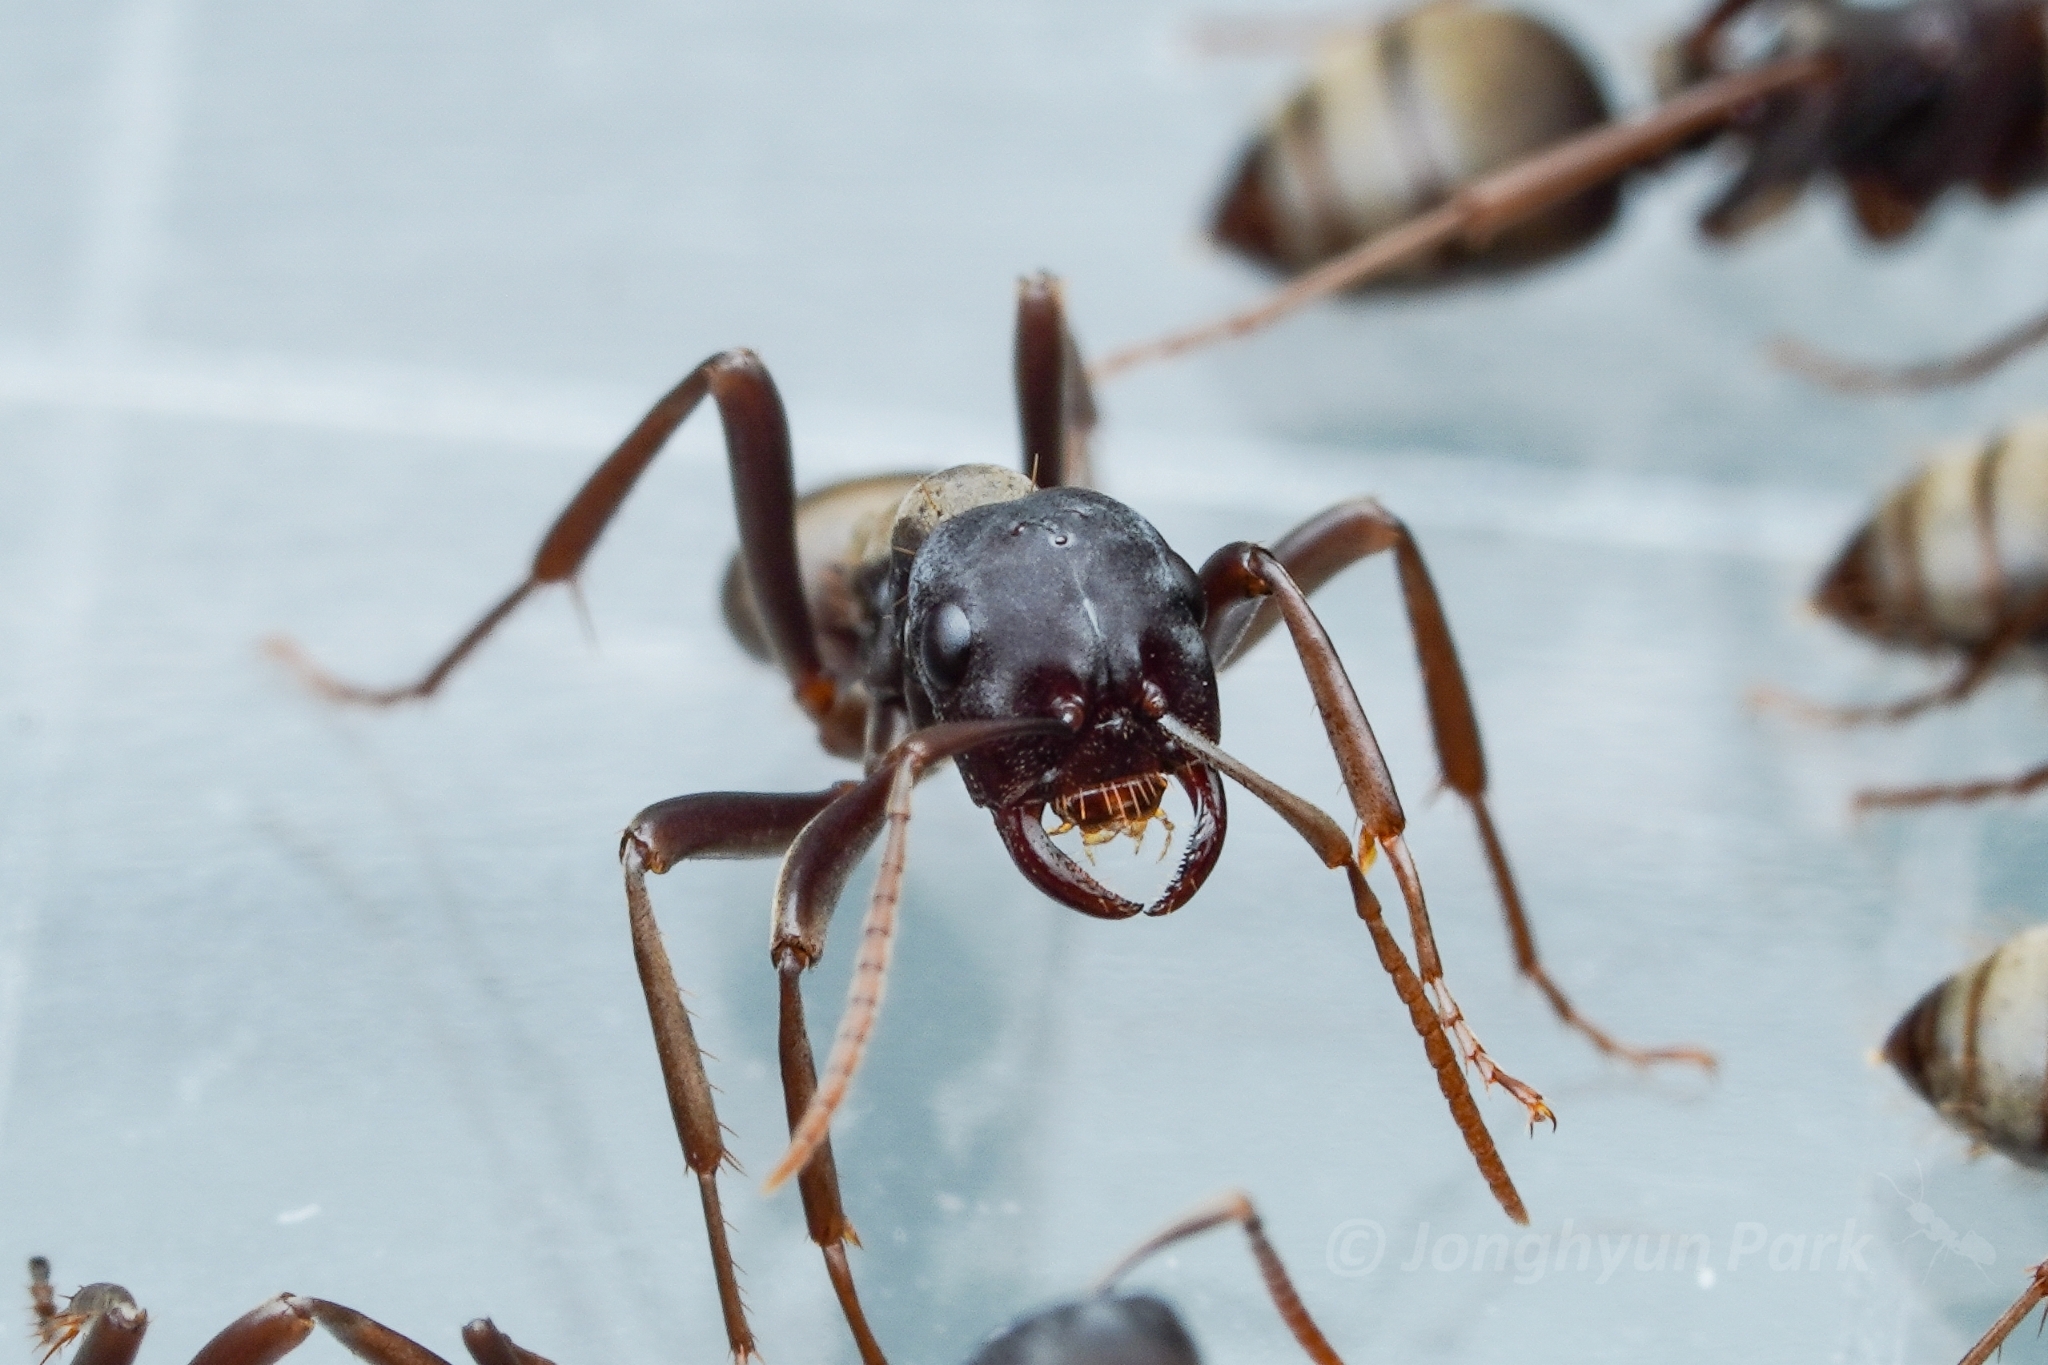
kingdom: Animalia
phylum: Arthropoda
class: Insecta
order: Hymenoptera
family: Formicidae
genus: Polyergus
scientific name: Polyergus samurai
